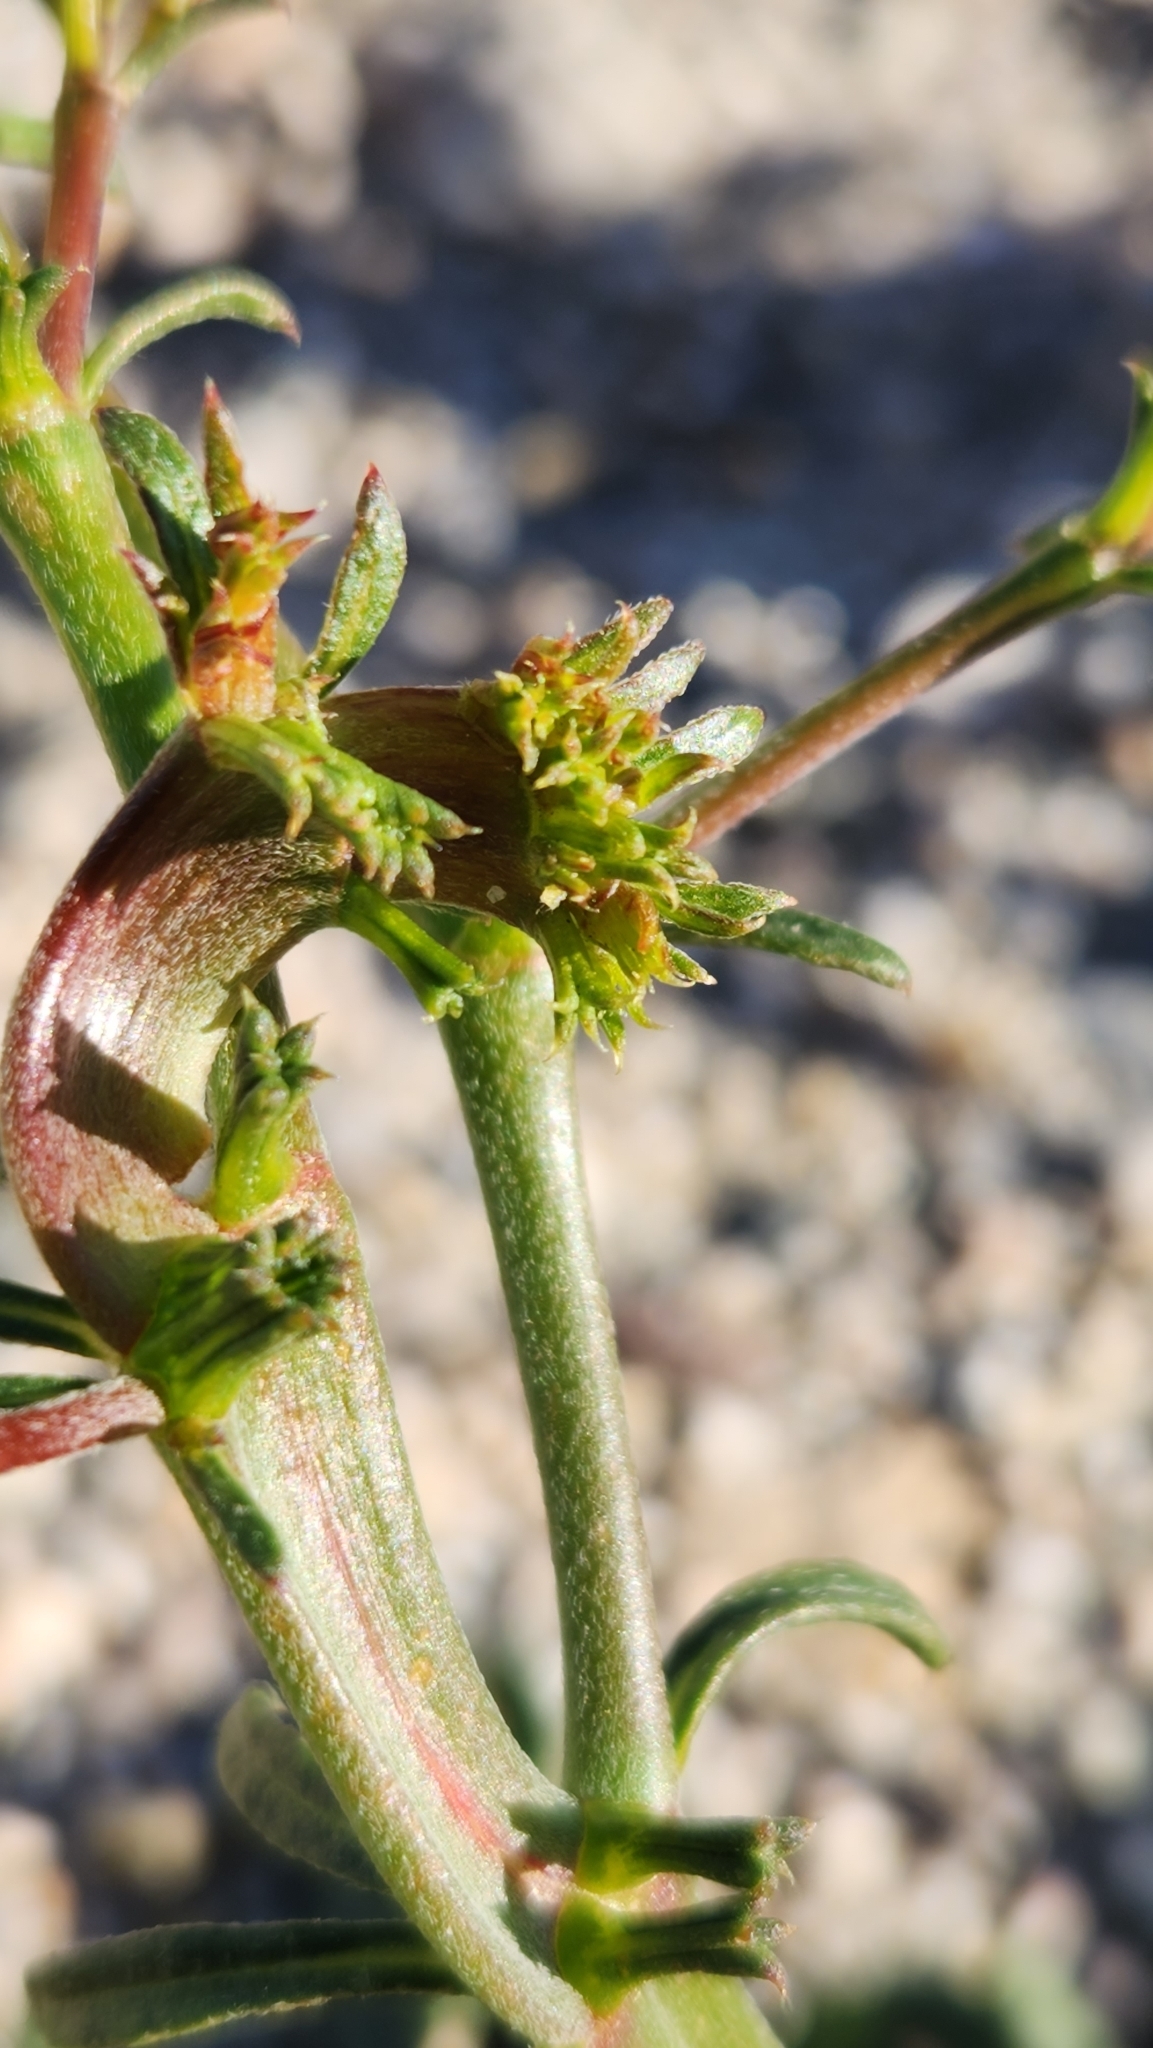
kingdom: Plantae
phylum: Tracheophyta
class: Magnoliopsida
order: Caryophyllales
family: Polygonaceae
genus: Chorizanthe
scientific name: Chorizanthe brevicornu
